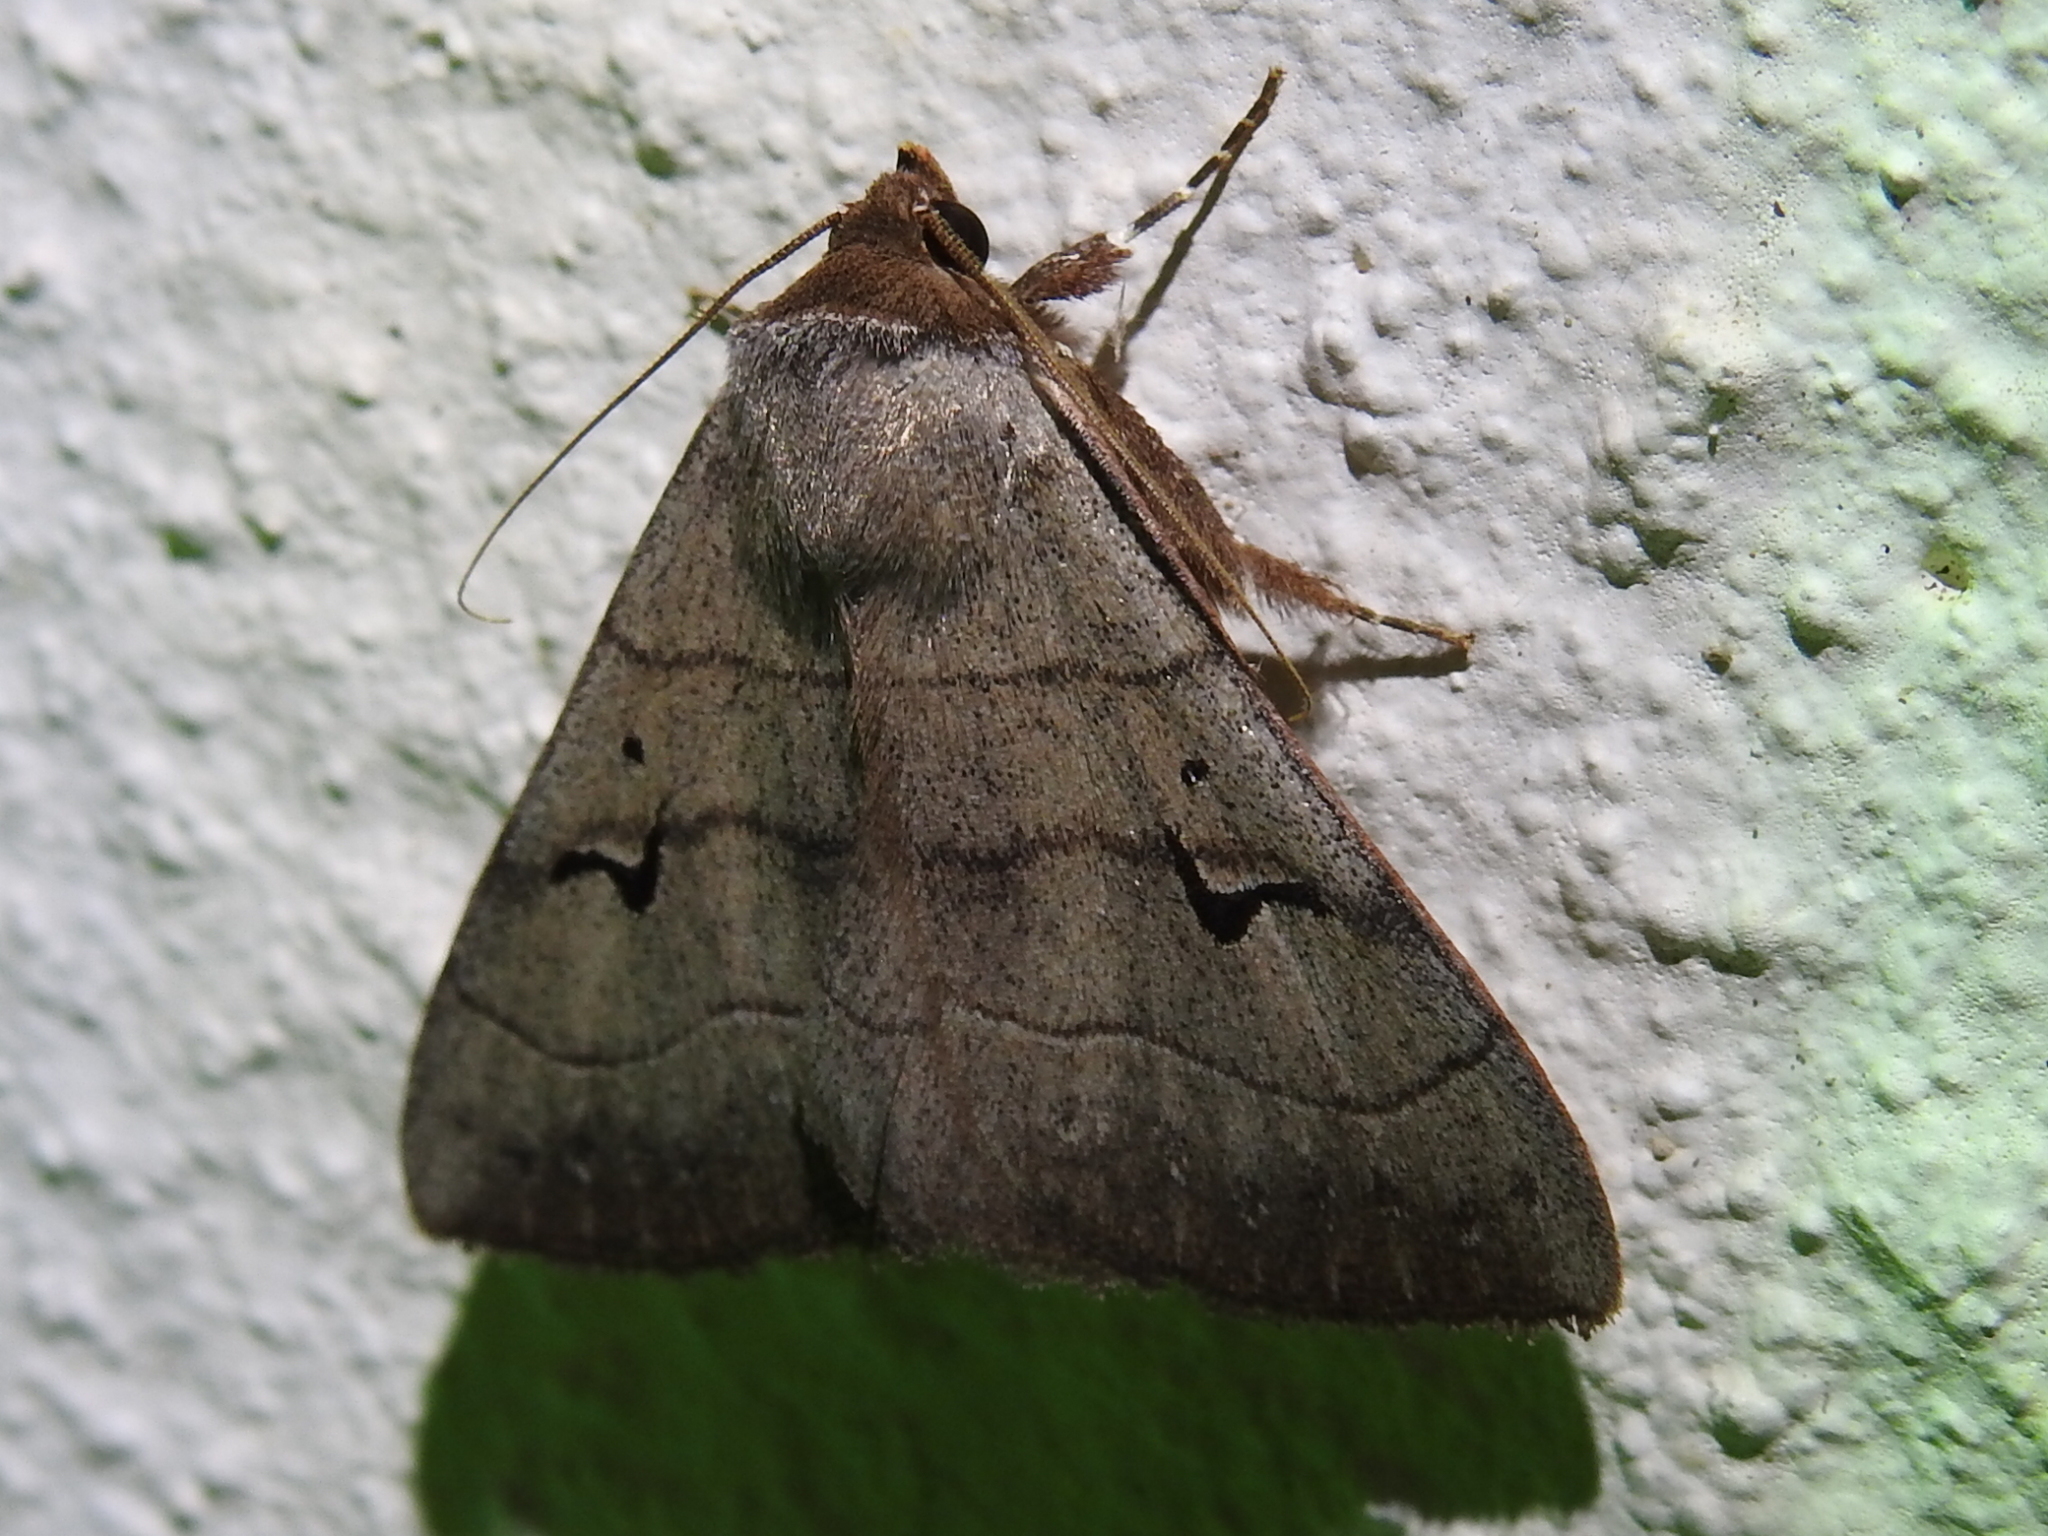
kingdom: Animalia
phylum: Arthropoda
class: Insecta
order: Lepidoptera
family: Erebidae
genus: Panopoda
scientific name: Panopoda carneicosta
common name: Brown panopoda moth
